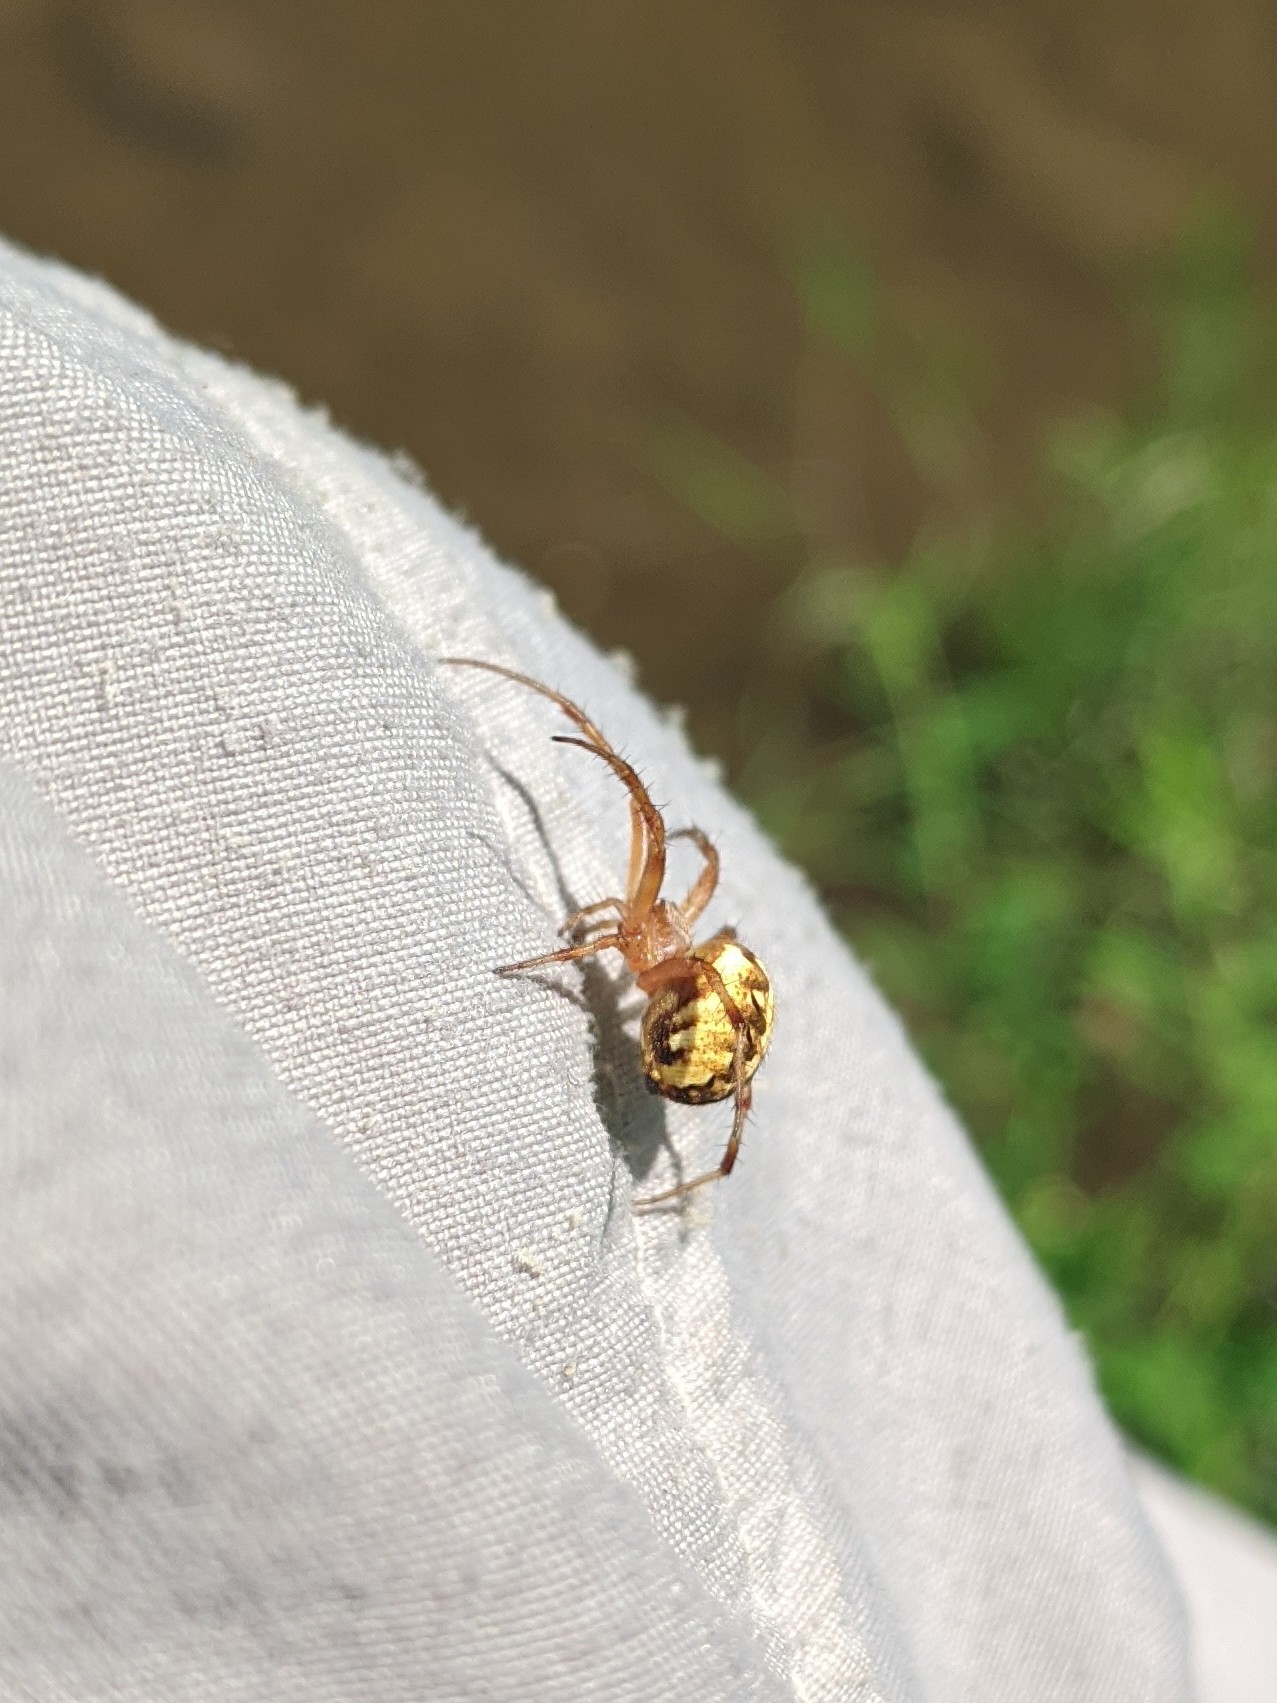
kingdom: Animalia
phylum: Arthropoda
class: Arachnida
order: Araneae
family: Araneidae
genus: Neoscona
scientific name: Neoscona arabesca
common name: Orb weavers
